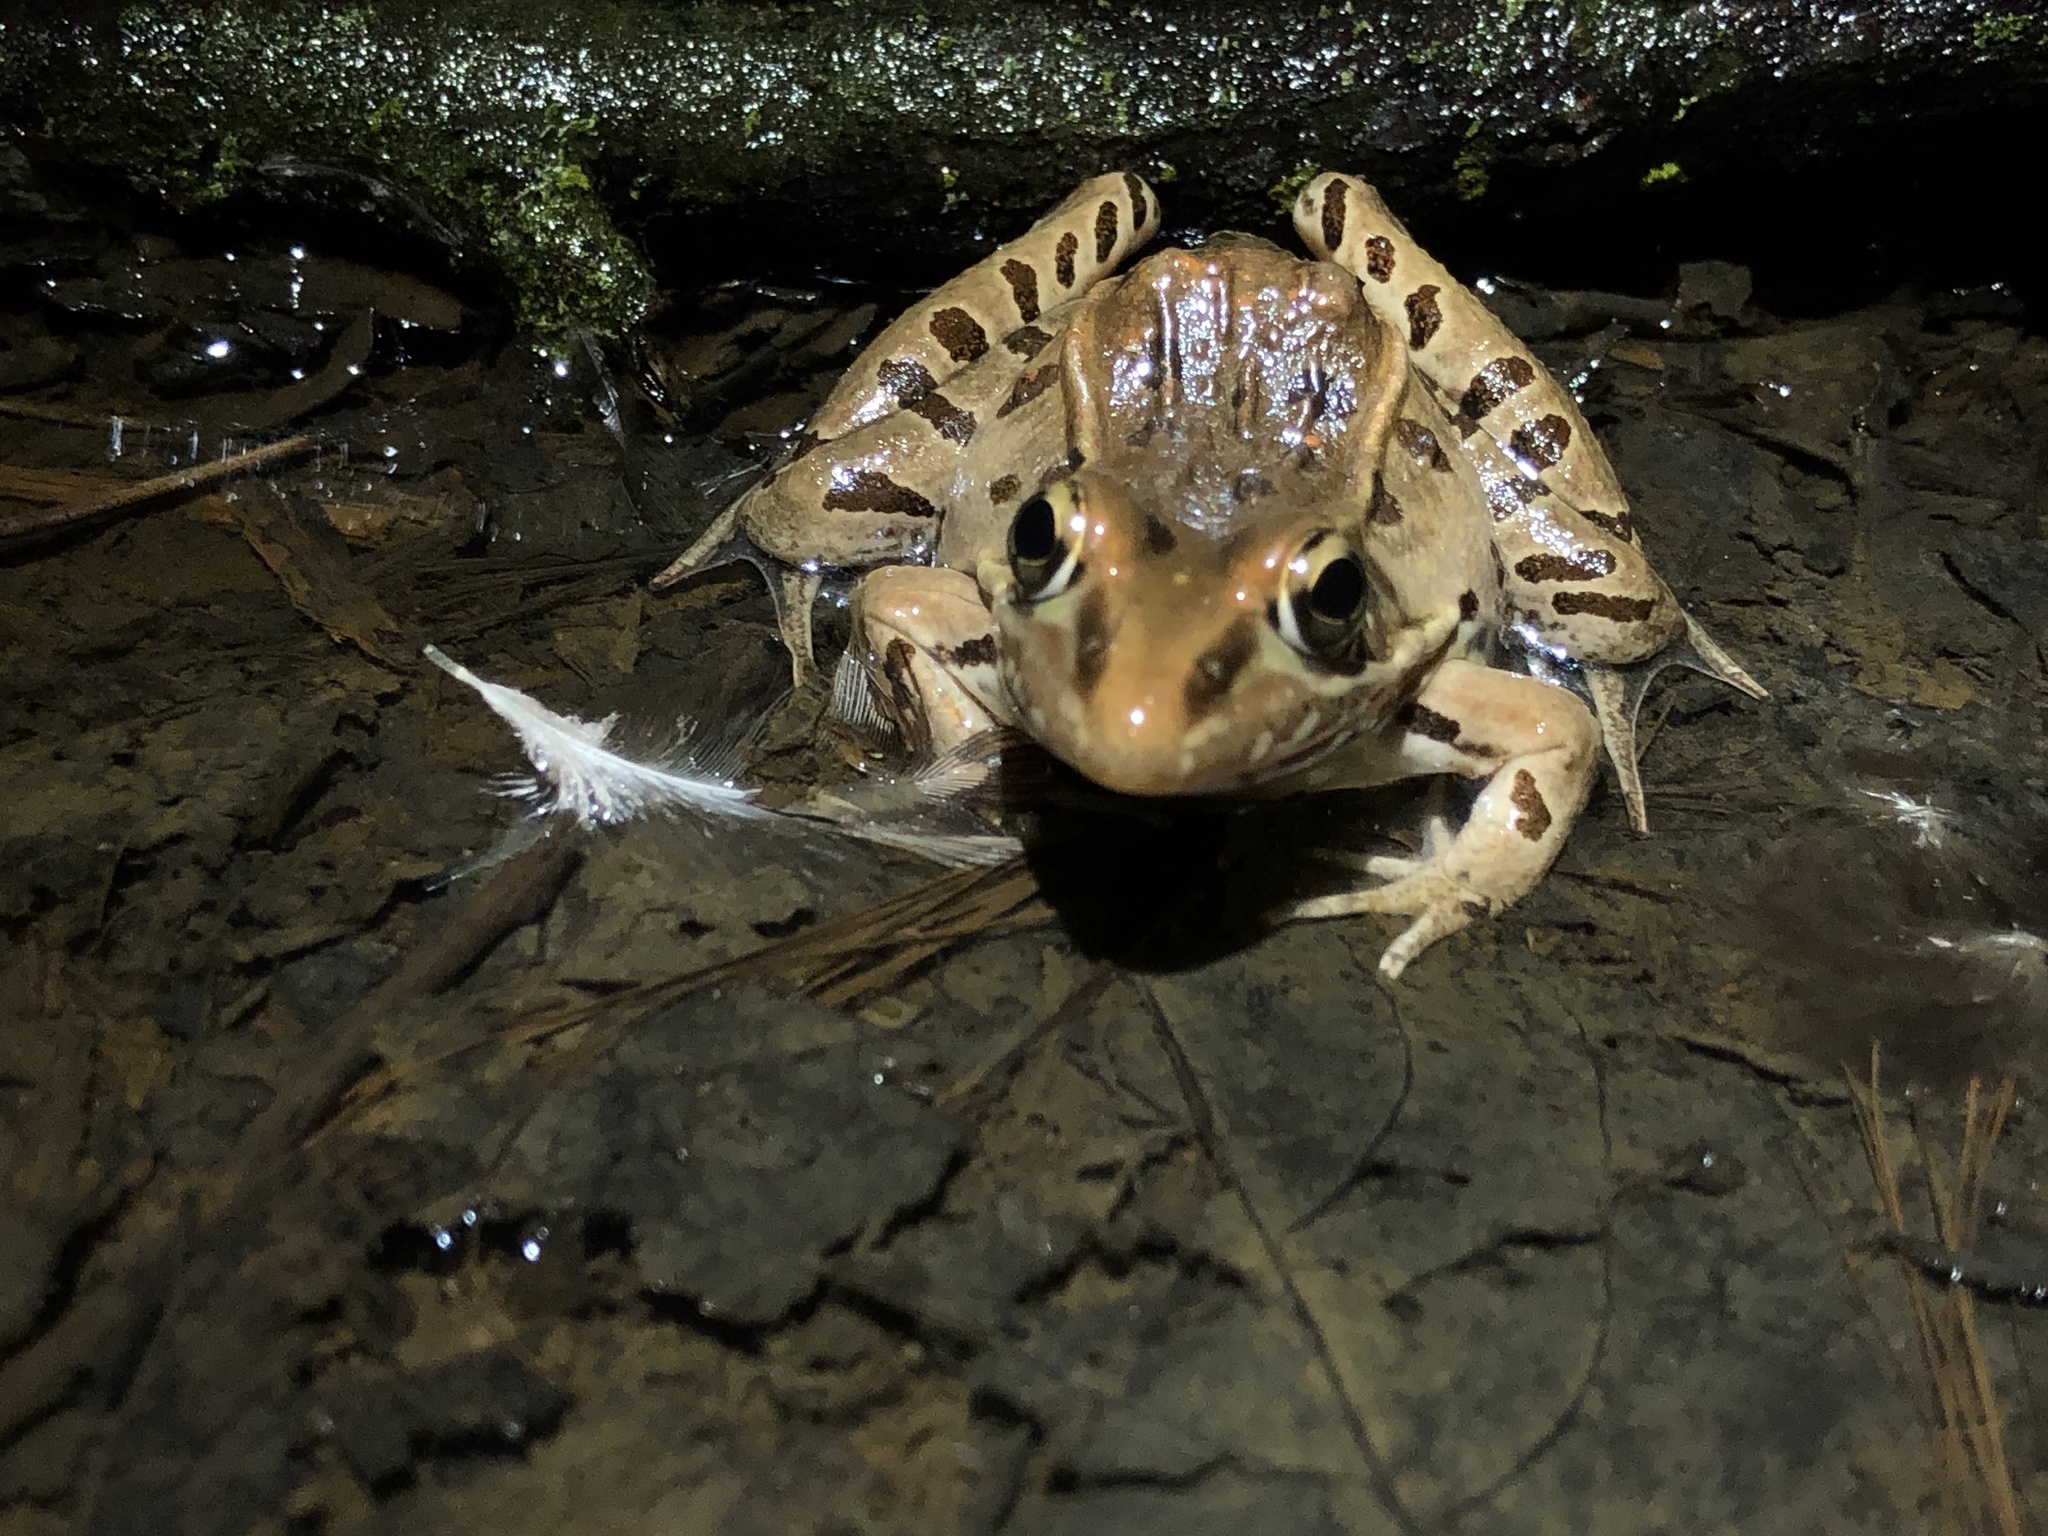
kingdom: Animalia
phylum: Chordata
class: Amphibia
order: Anura
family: Ranidae
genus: Lithobates
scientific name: Lithobates sphenocephalus
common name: Southern leopard frog
